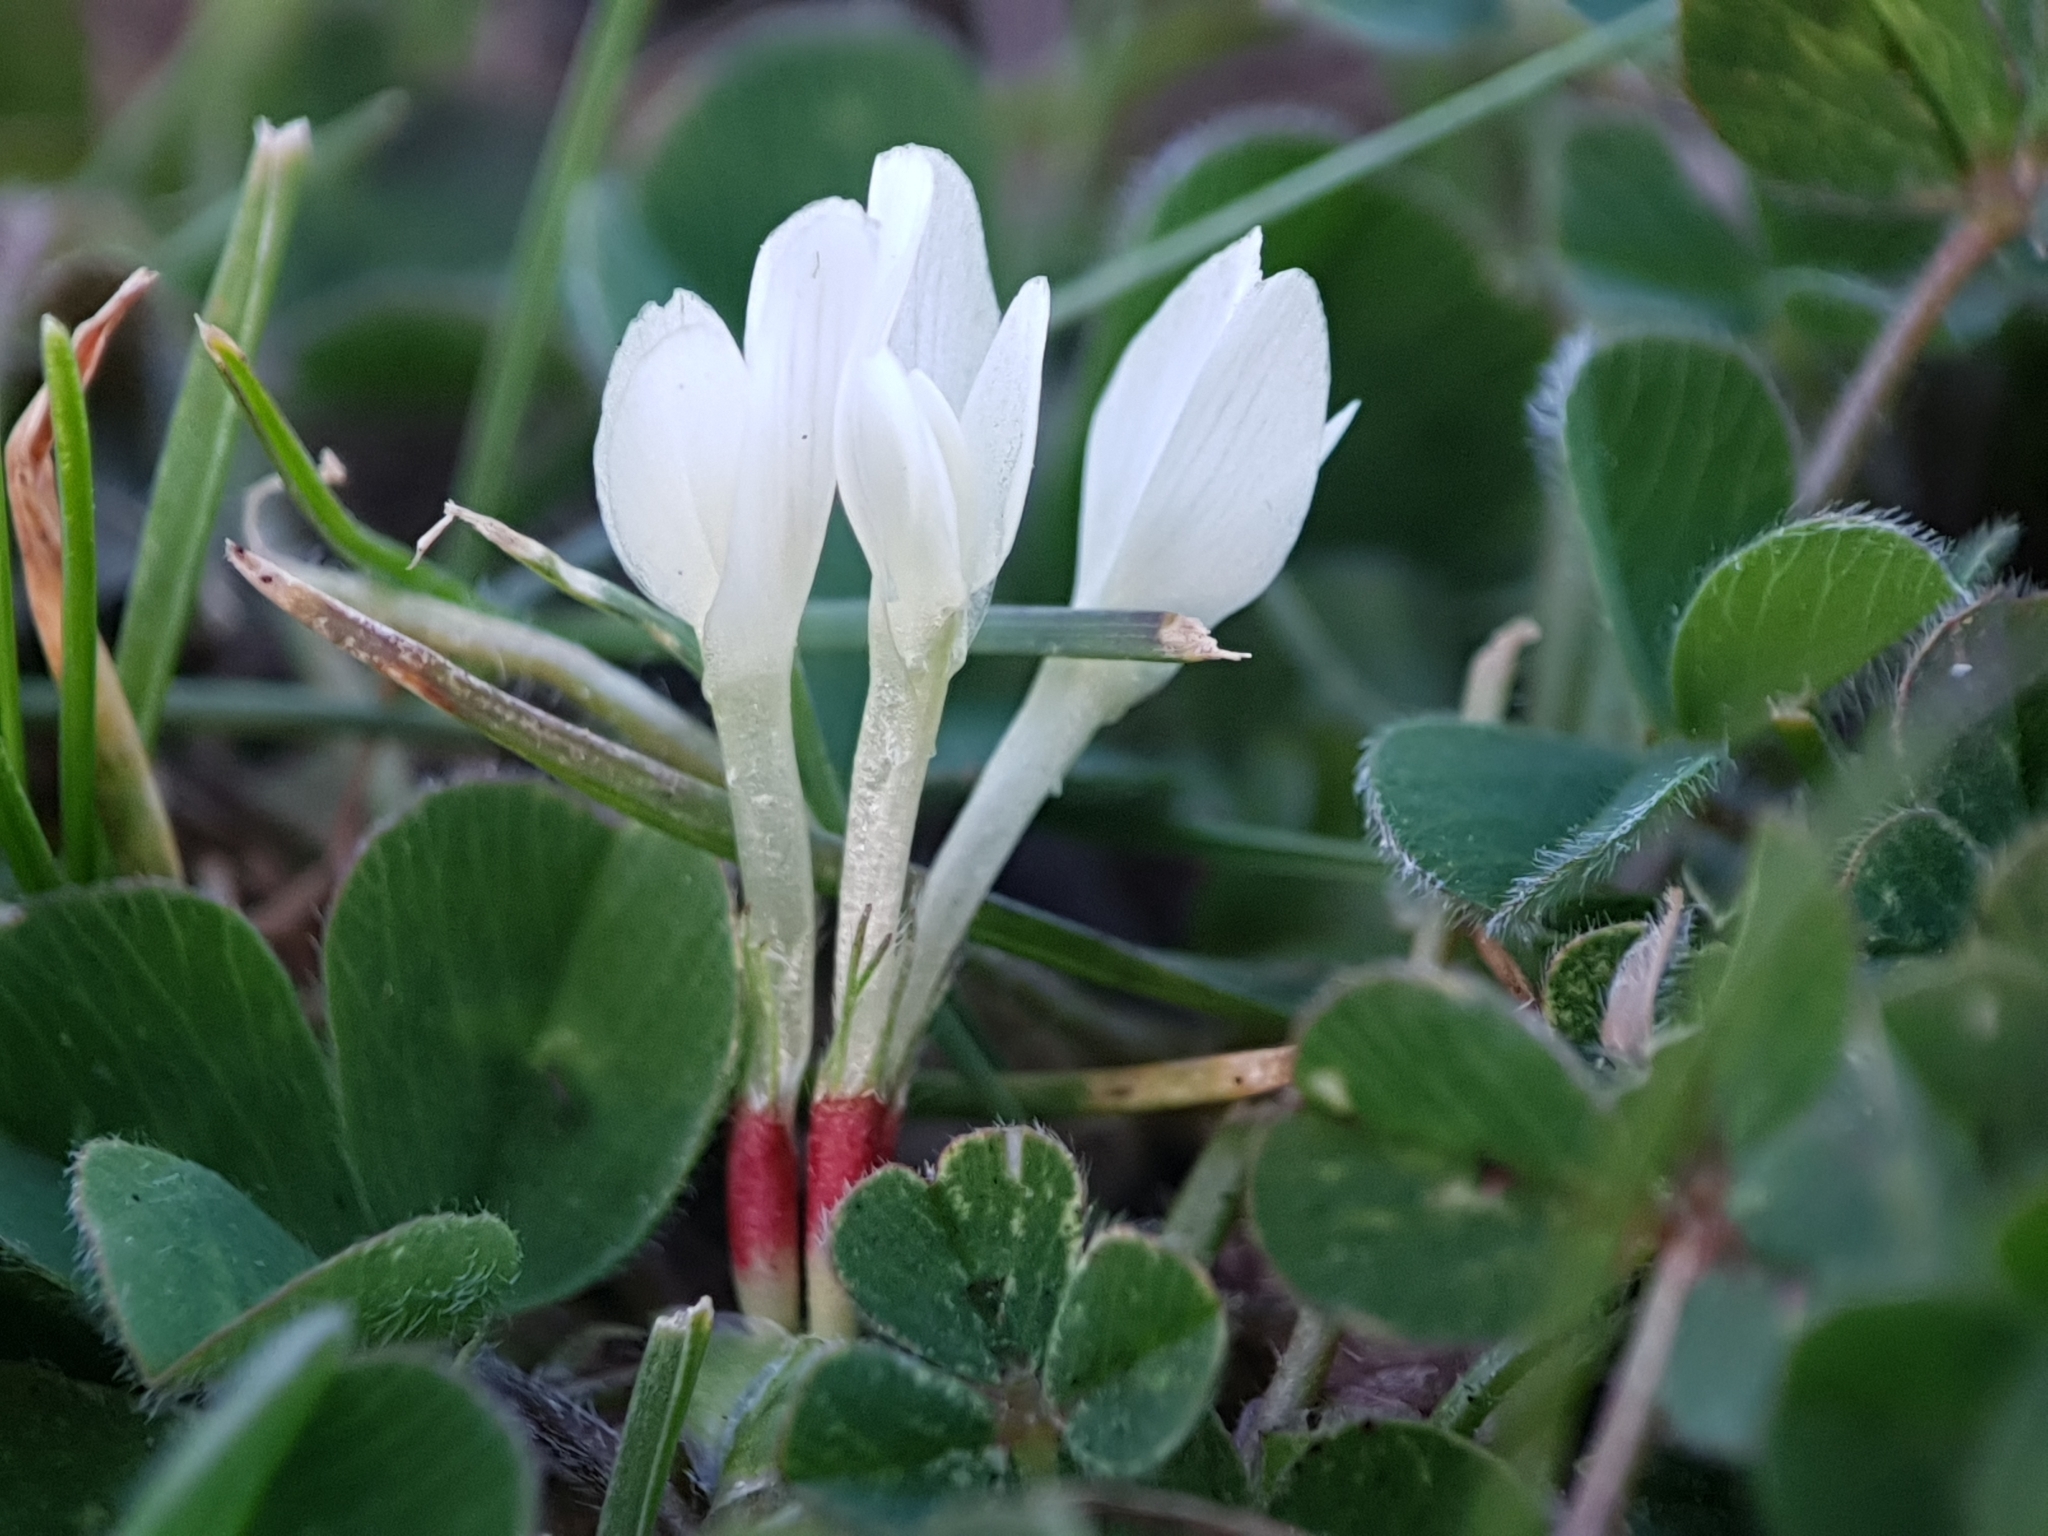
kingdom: Plantae
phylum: Tracheophyta
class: Magnoliopsida
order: Fabales
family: Fabaceae
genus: Trifolium
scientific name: Trifolium subterraneum
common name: Subterranean clover
